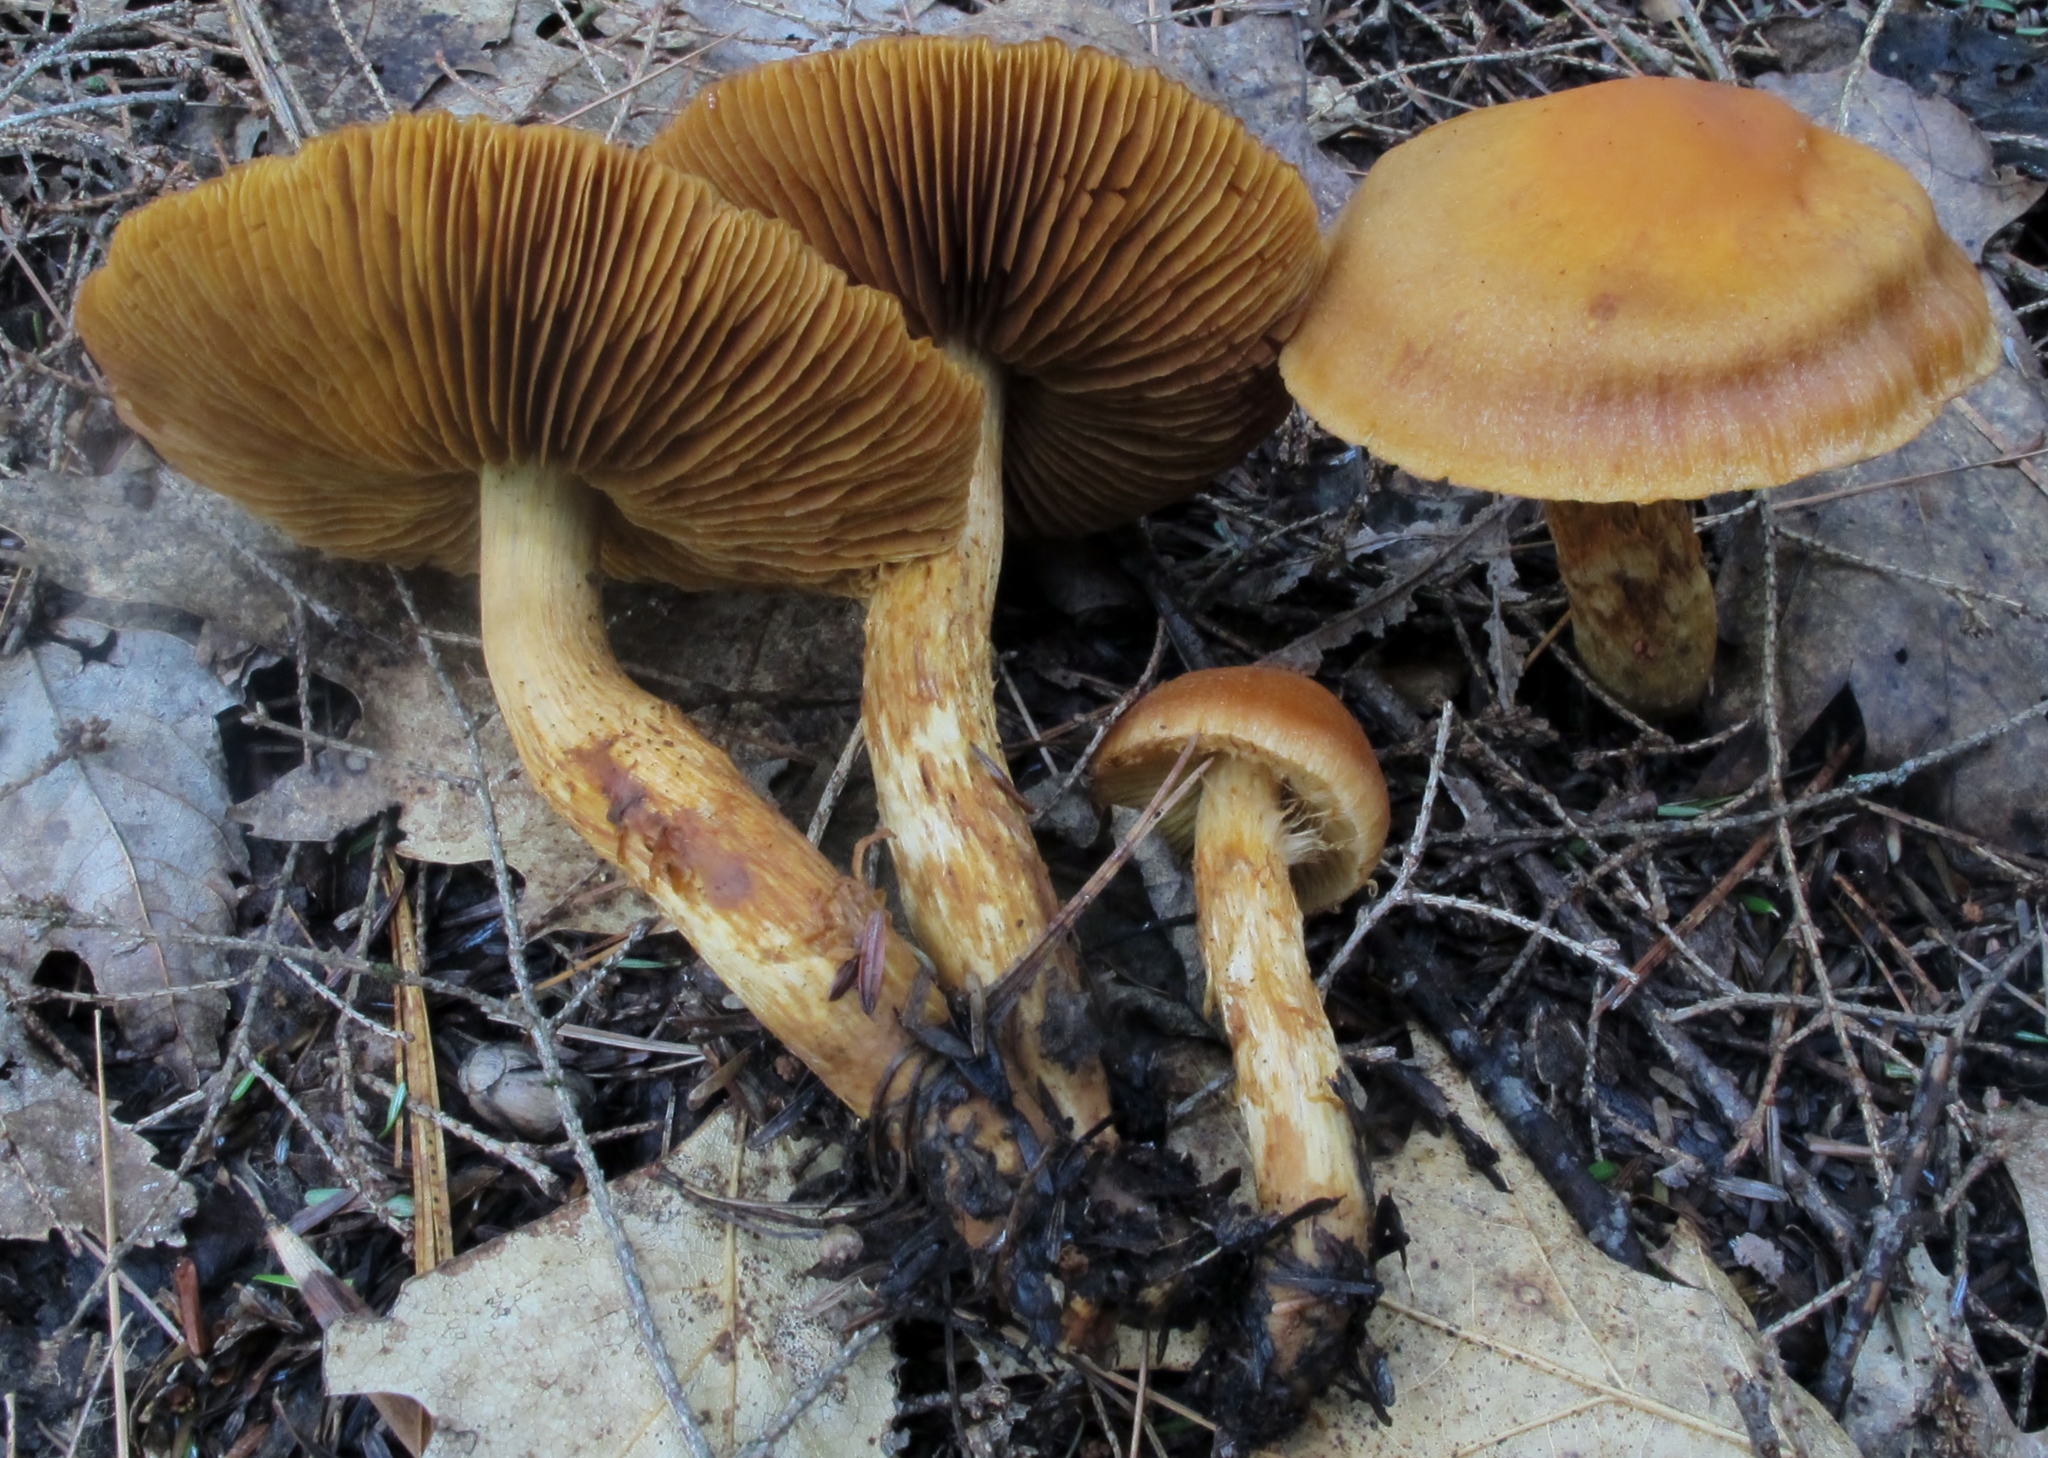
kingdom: Fungi
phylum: Basidiomycota
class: Agaricomycetes
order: Agaricales
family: Cortinariaceae
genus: Aureonarius
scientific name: Aureonarius limonius
